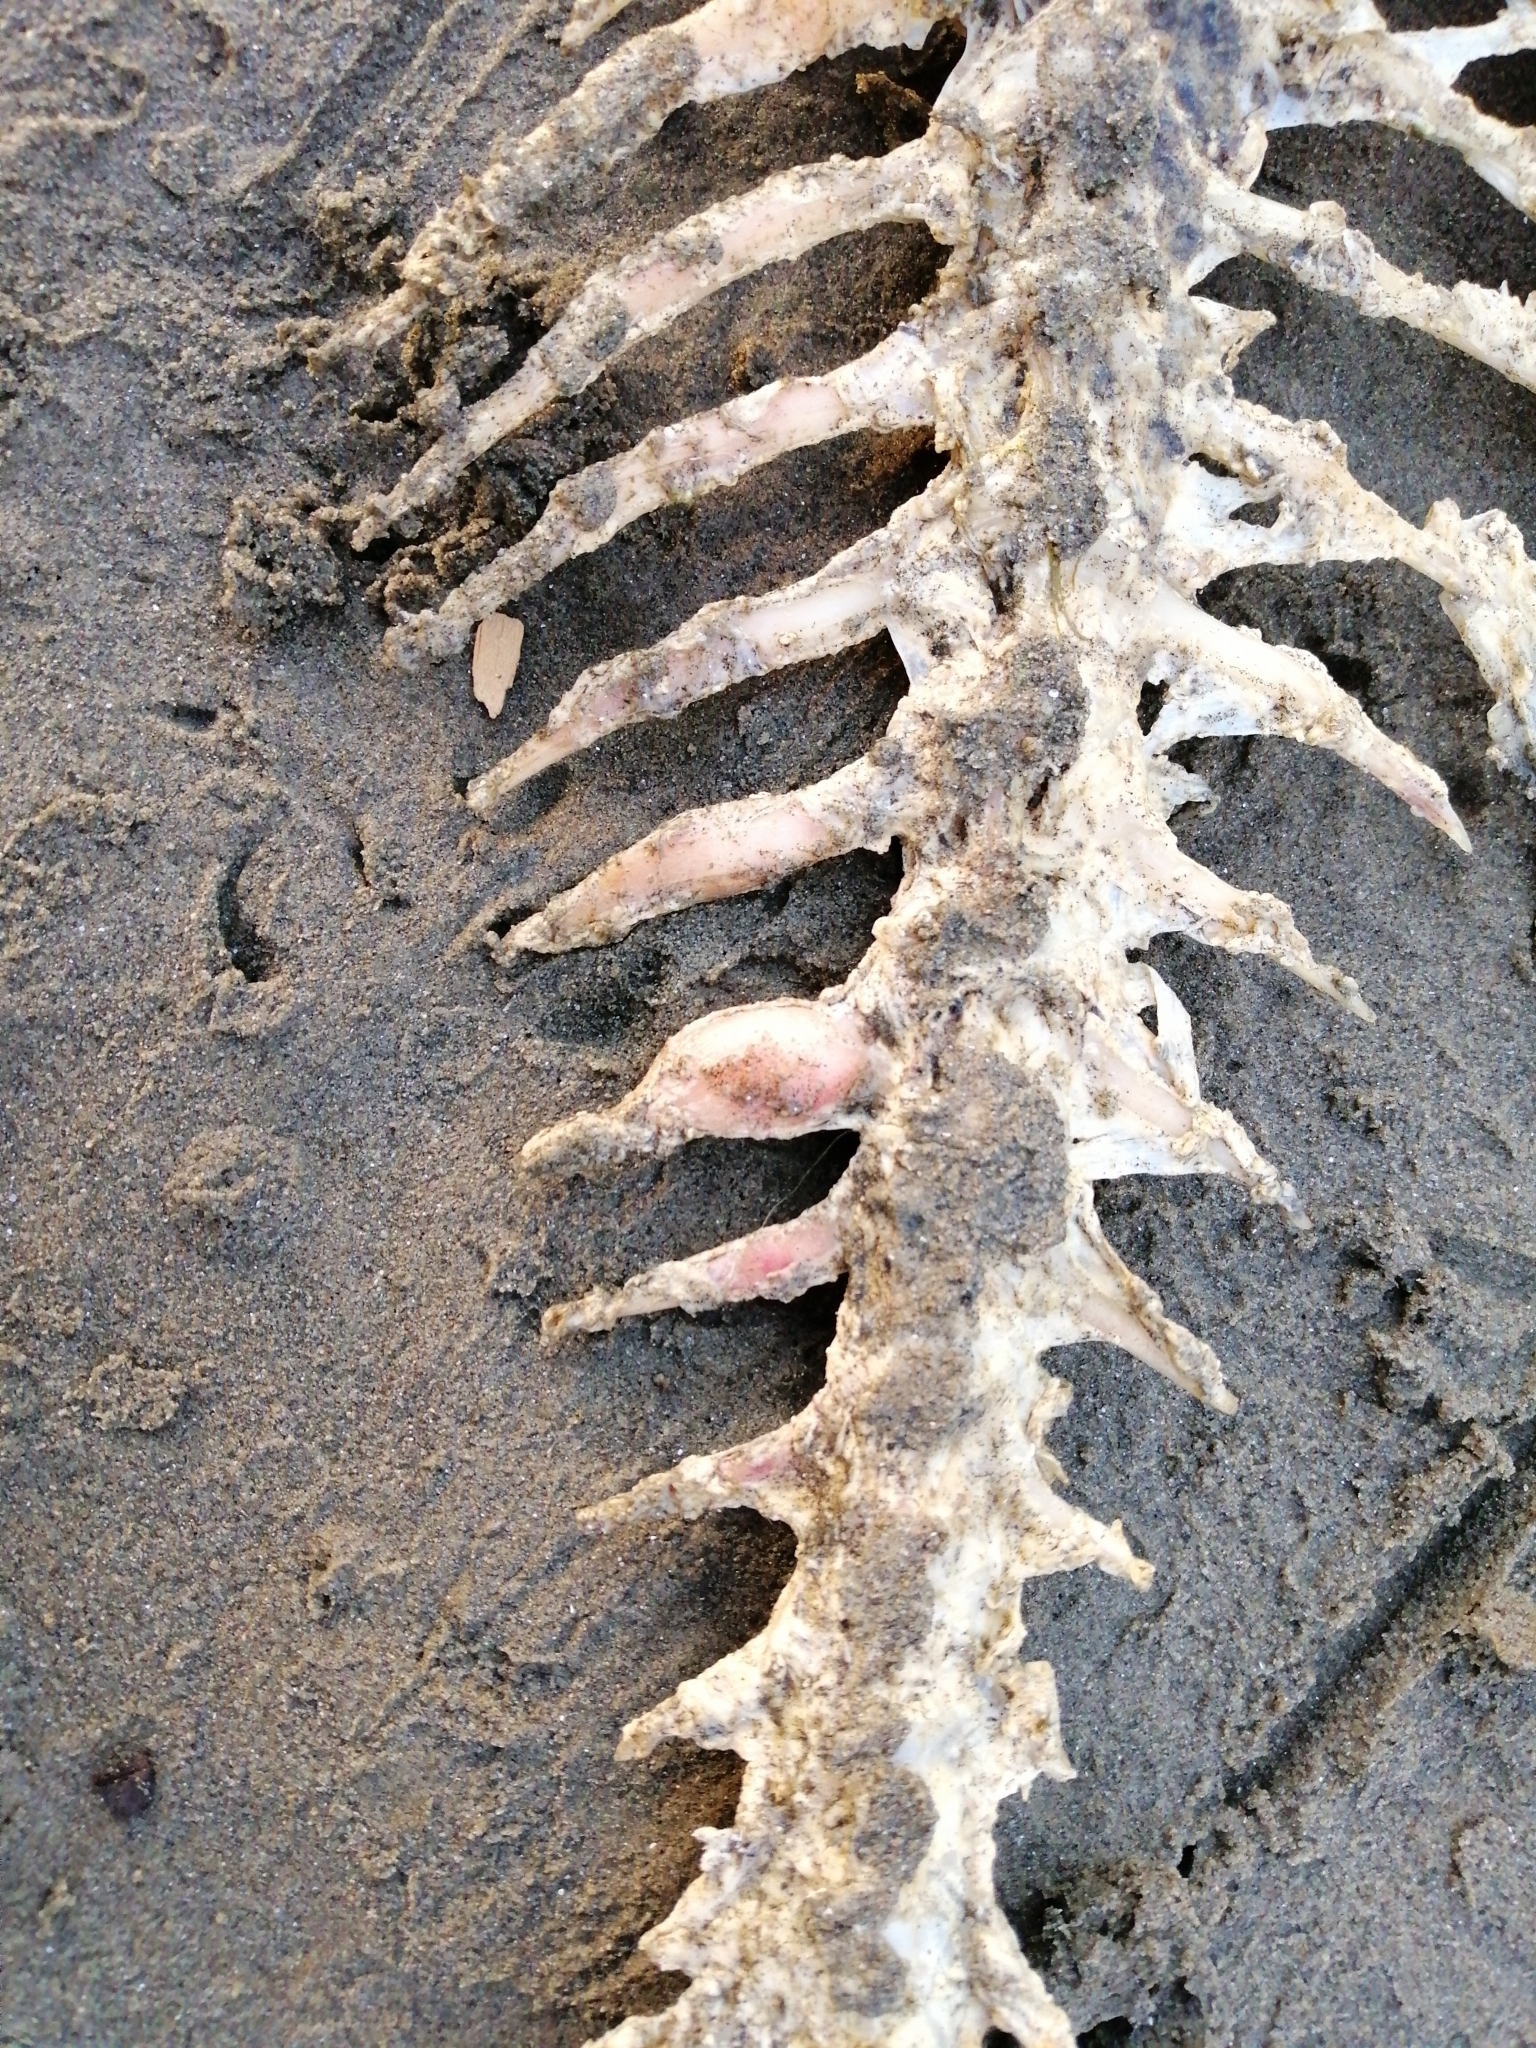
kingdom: Animalia
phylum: Chordata
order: Perciformes
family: Sparidae
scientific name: Sparidae
